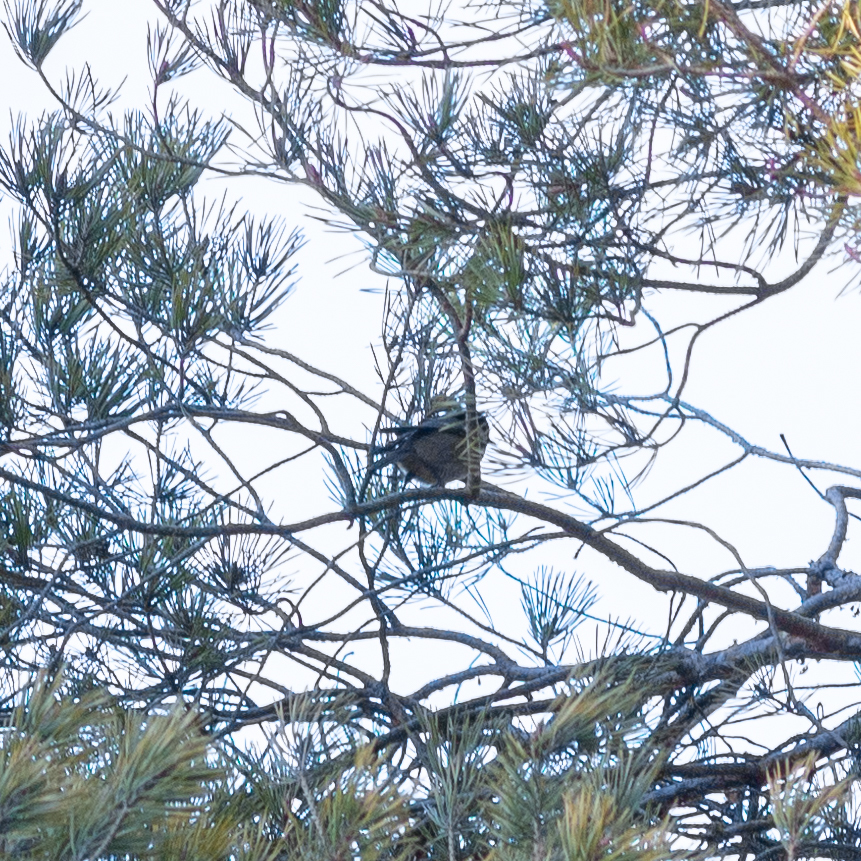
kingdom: Animalia
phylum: Chordata
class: Aves
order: Passeriformes
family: Paridae
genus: Periparus
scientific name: Periparus ater
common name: Coal tit
